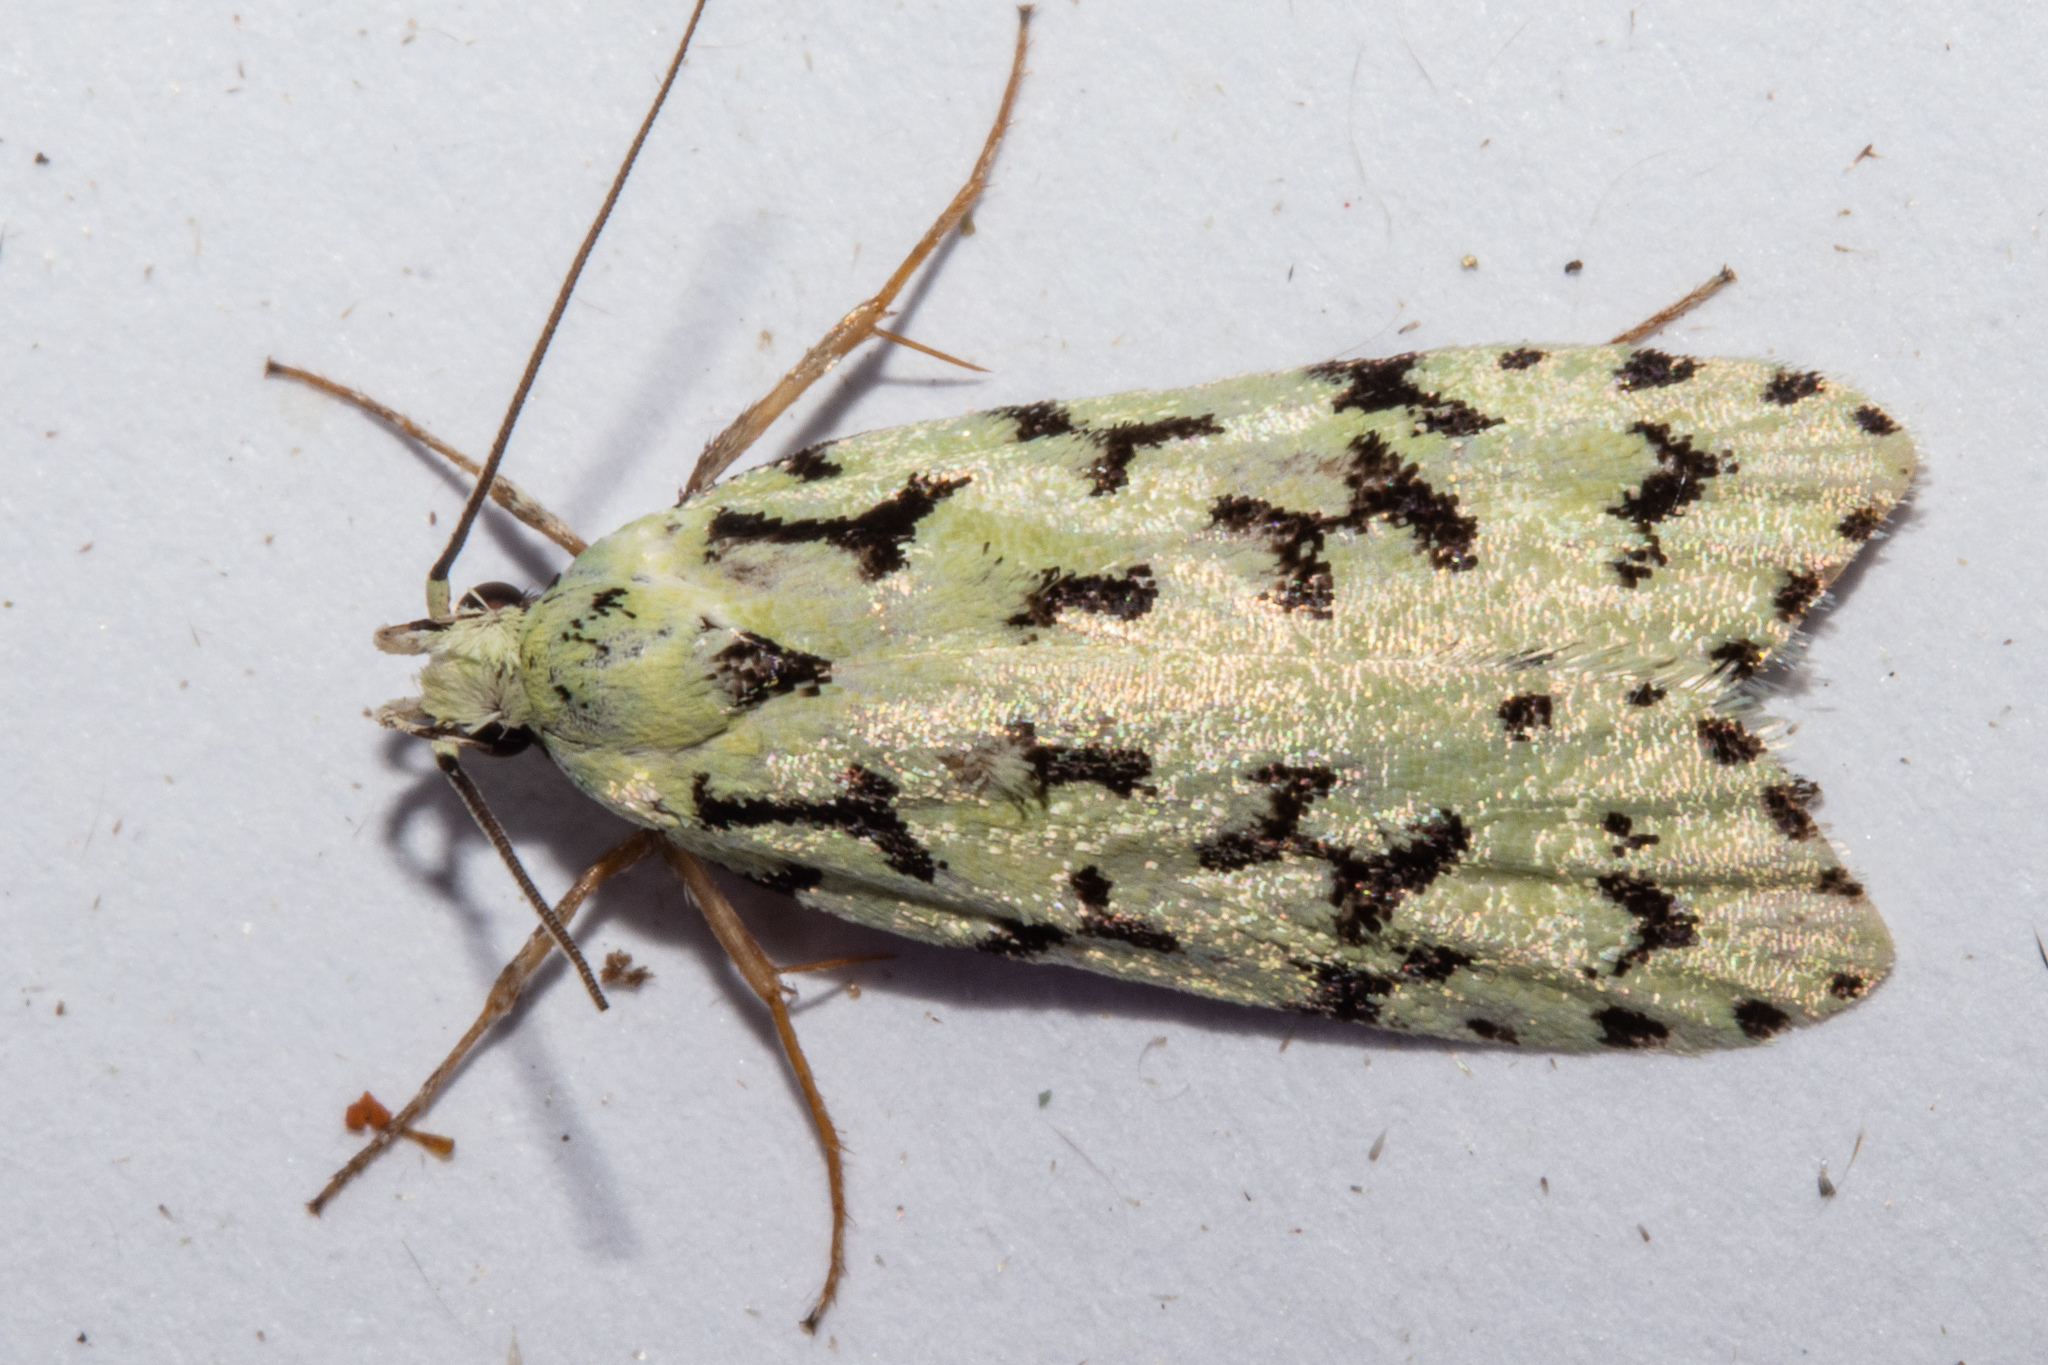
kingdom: Animalia
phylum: Arthropoda
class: Insecta
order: Lepidoptera
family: Oecophoridae
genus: Izatha
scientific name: Izatha huttoni
